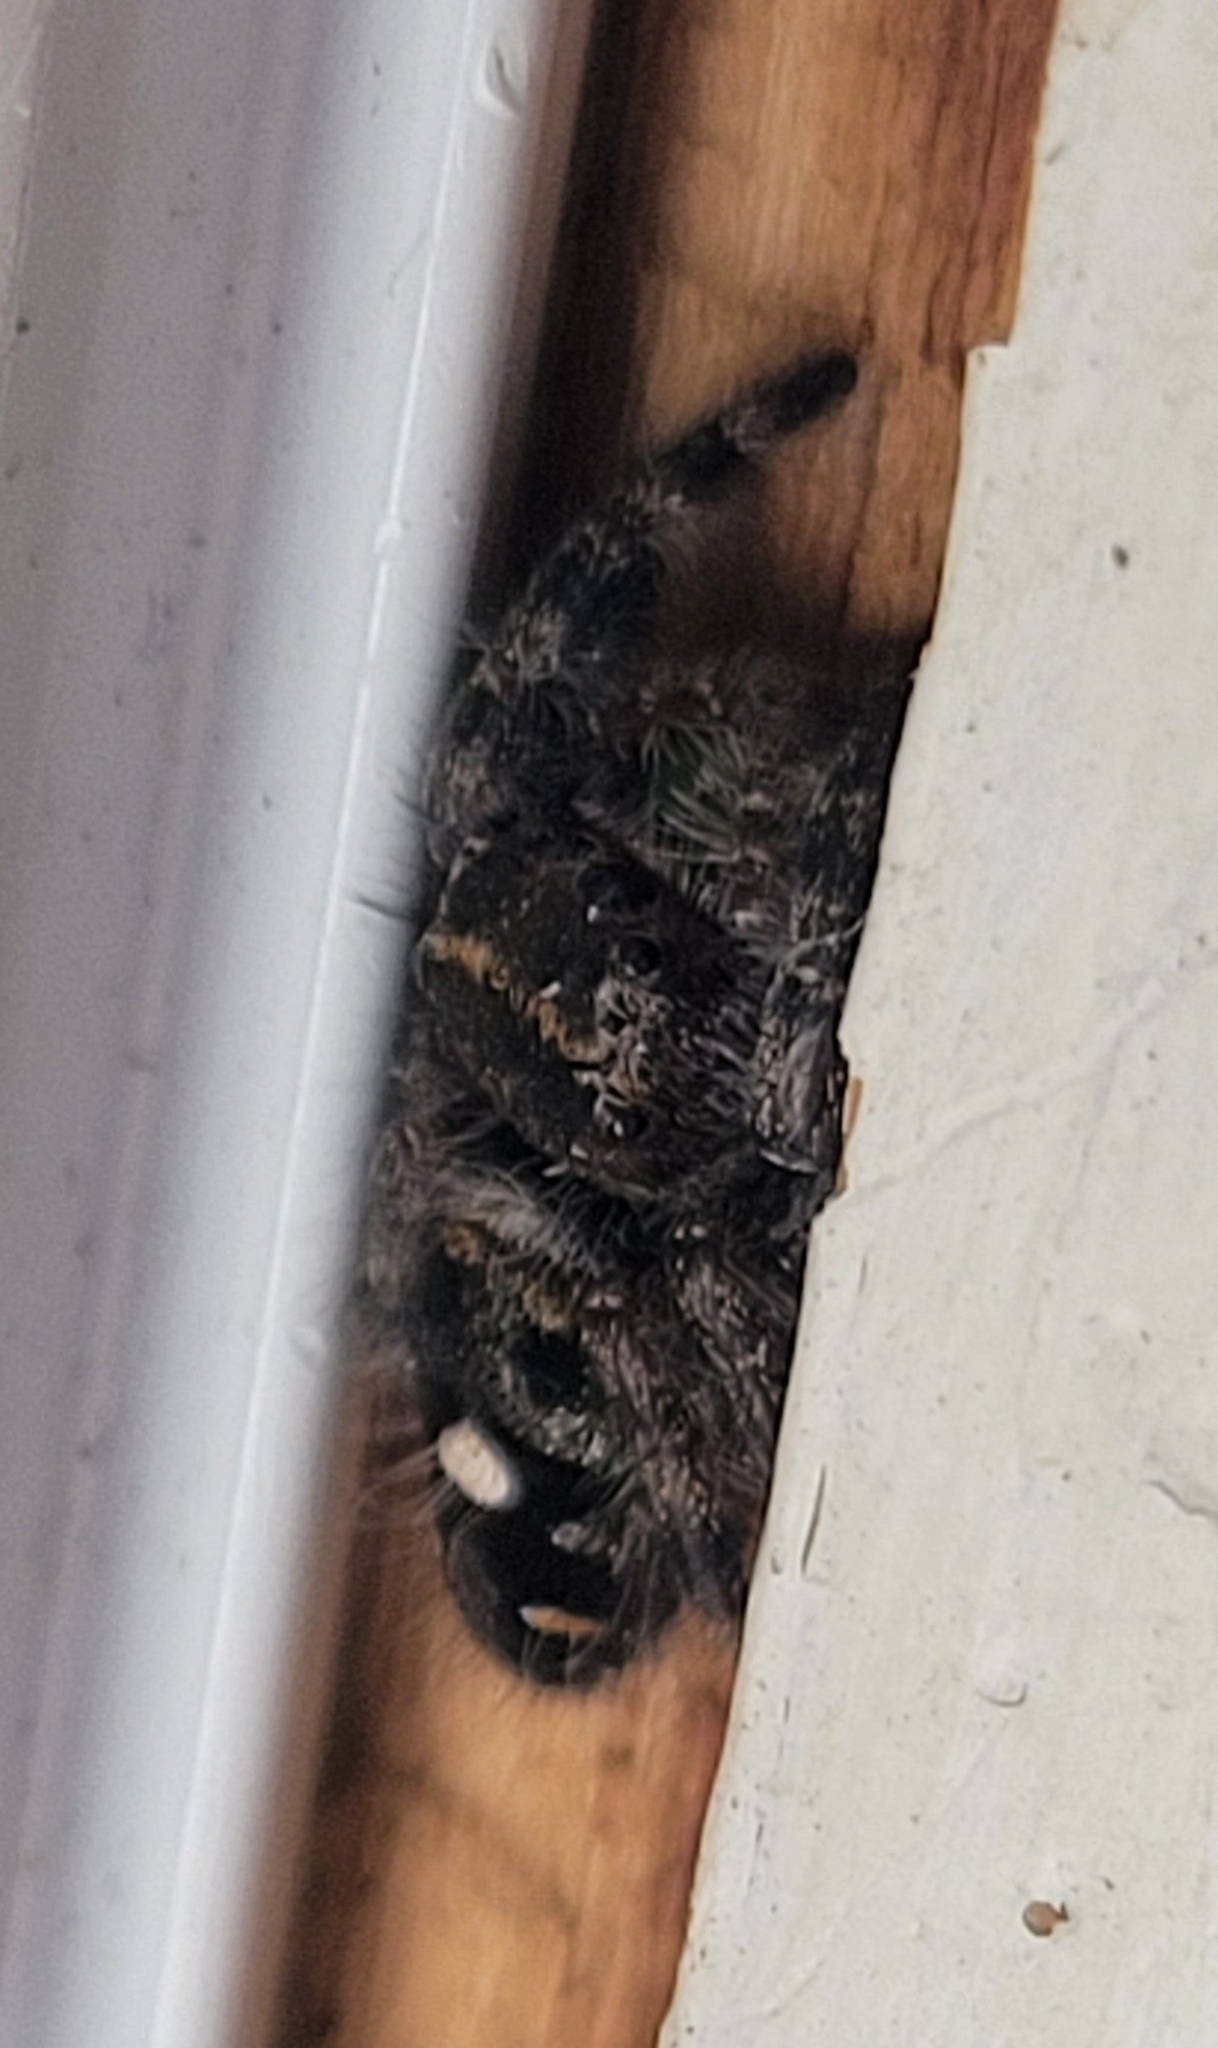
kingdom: Animalia
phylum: Arthropoda
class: Arachnida
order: Araneae
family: Salticidae
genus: Phidippus
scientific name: Phidippus audax
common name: Bold jumper
